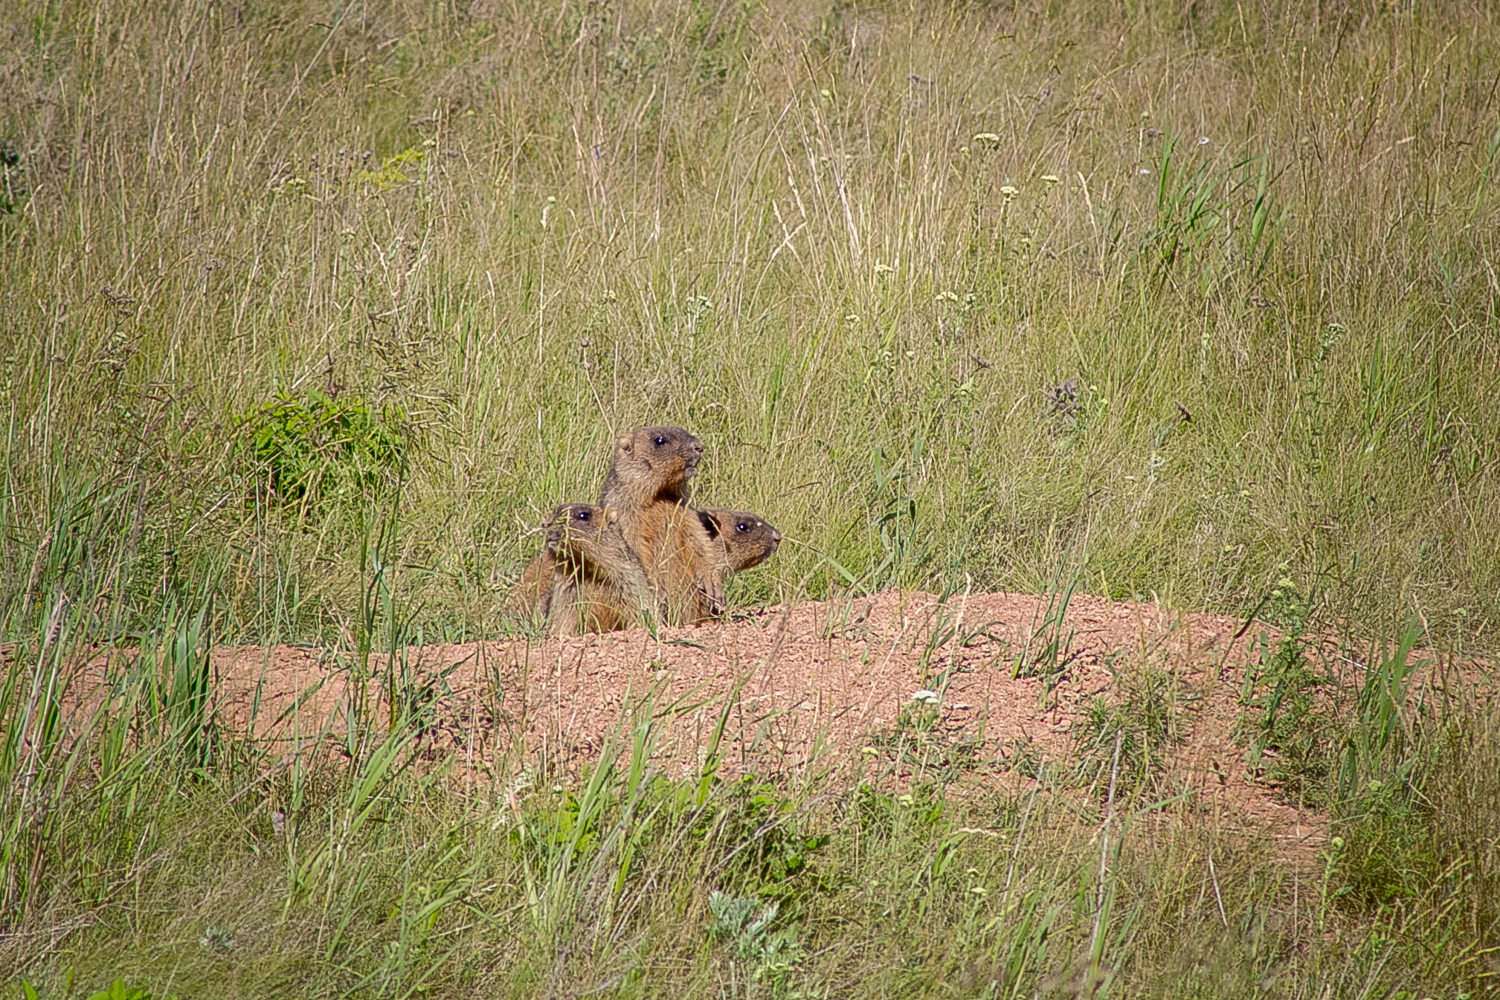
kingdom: Animalia
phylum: Chordata
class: Mammalia
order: Rodentia
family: Sciuridae
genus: Marmota
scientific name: Marmota bobak
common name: Bobak marmot
